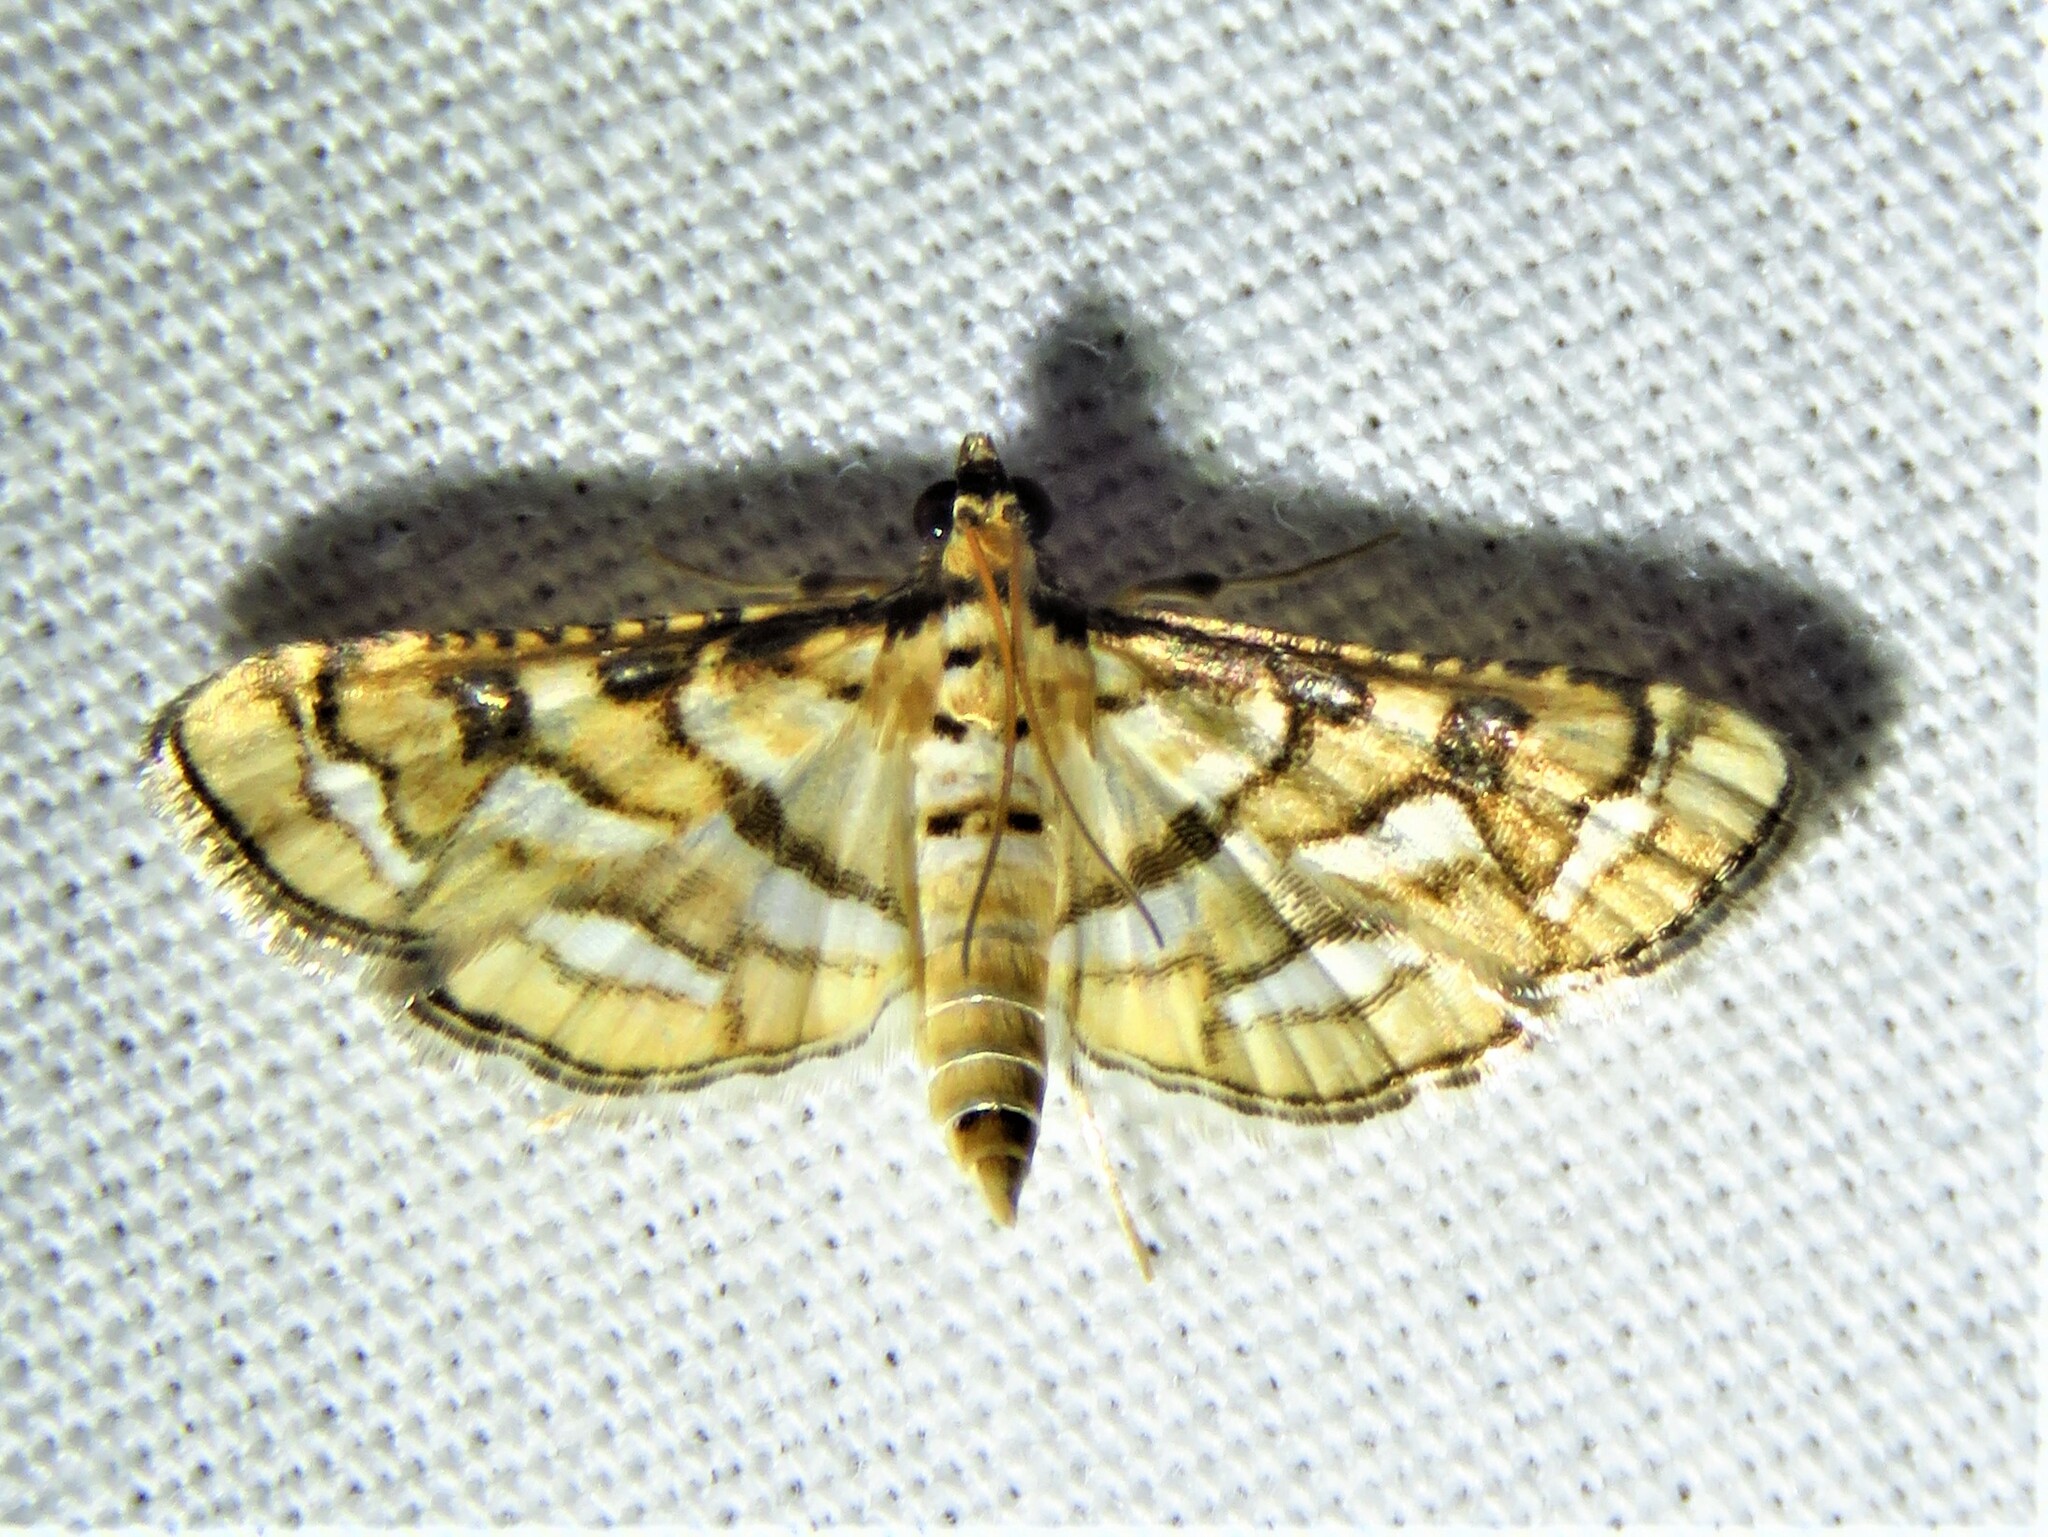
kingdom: Animalia
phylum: Arthropoda
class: Insecta
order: Lepidoptera
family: Crambidae
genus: Hileithia
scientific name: Hileithia magualis
